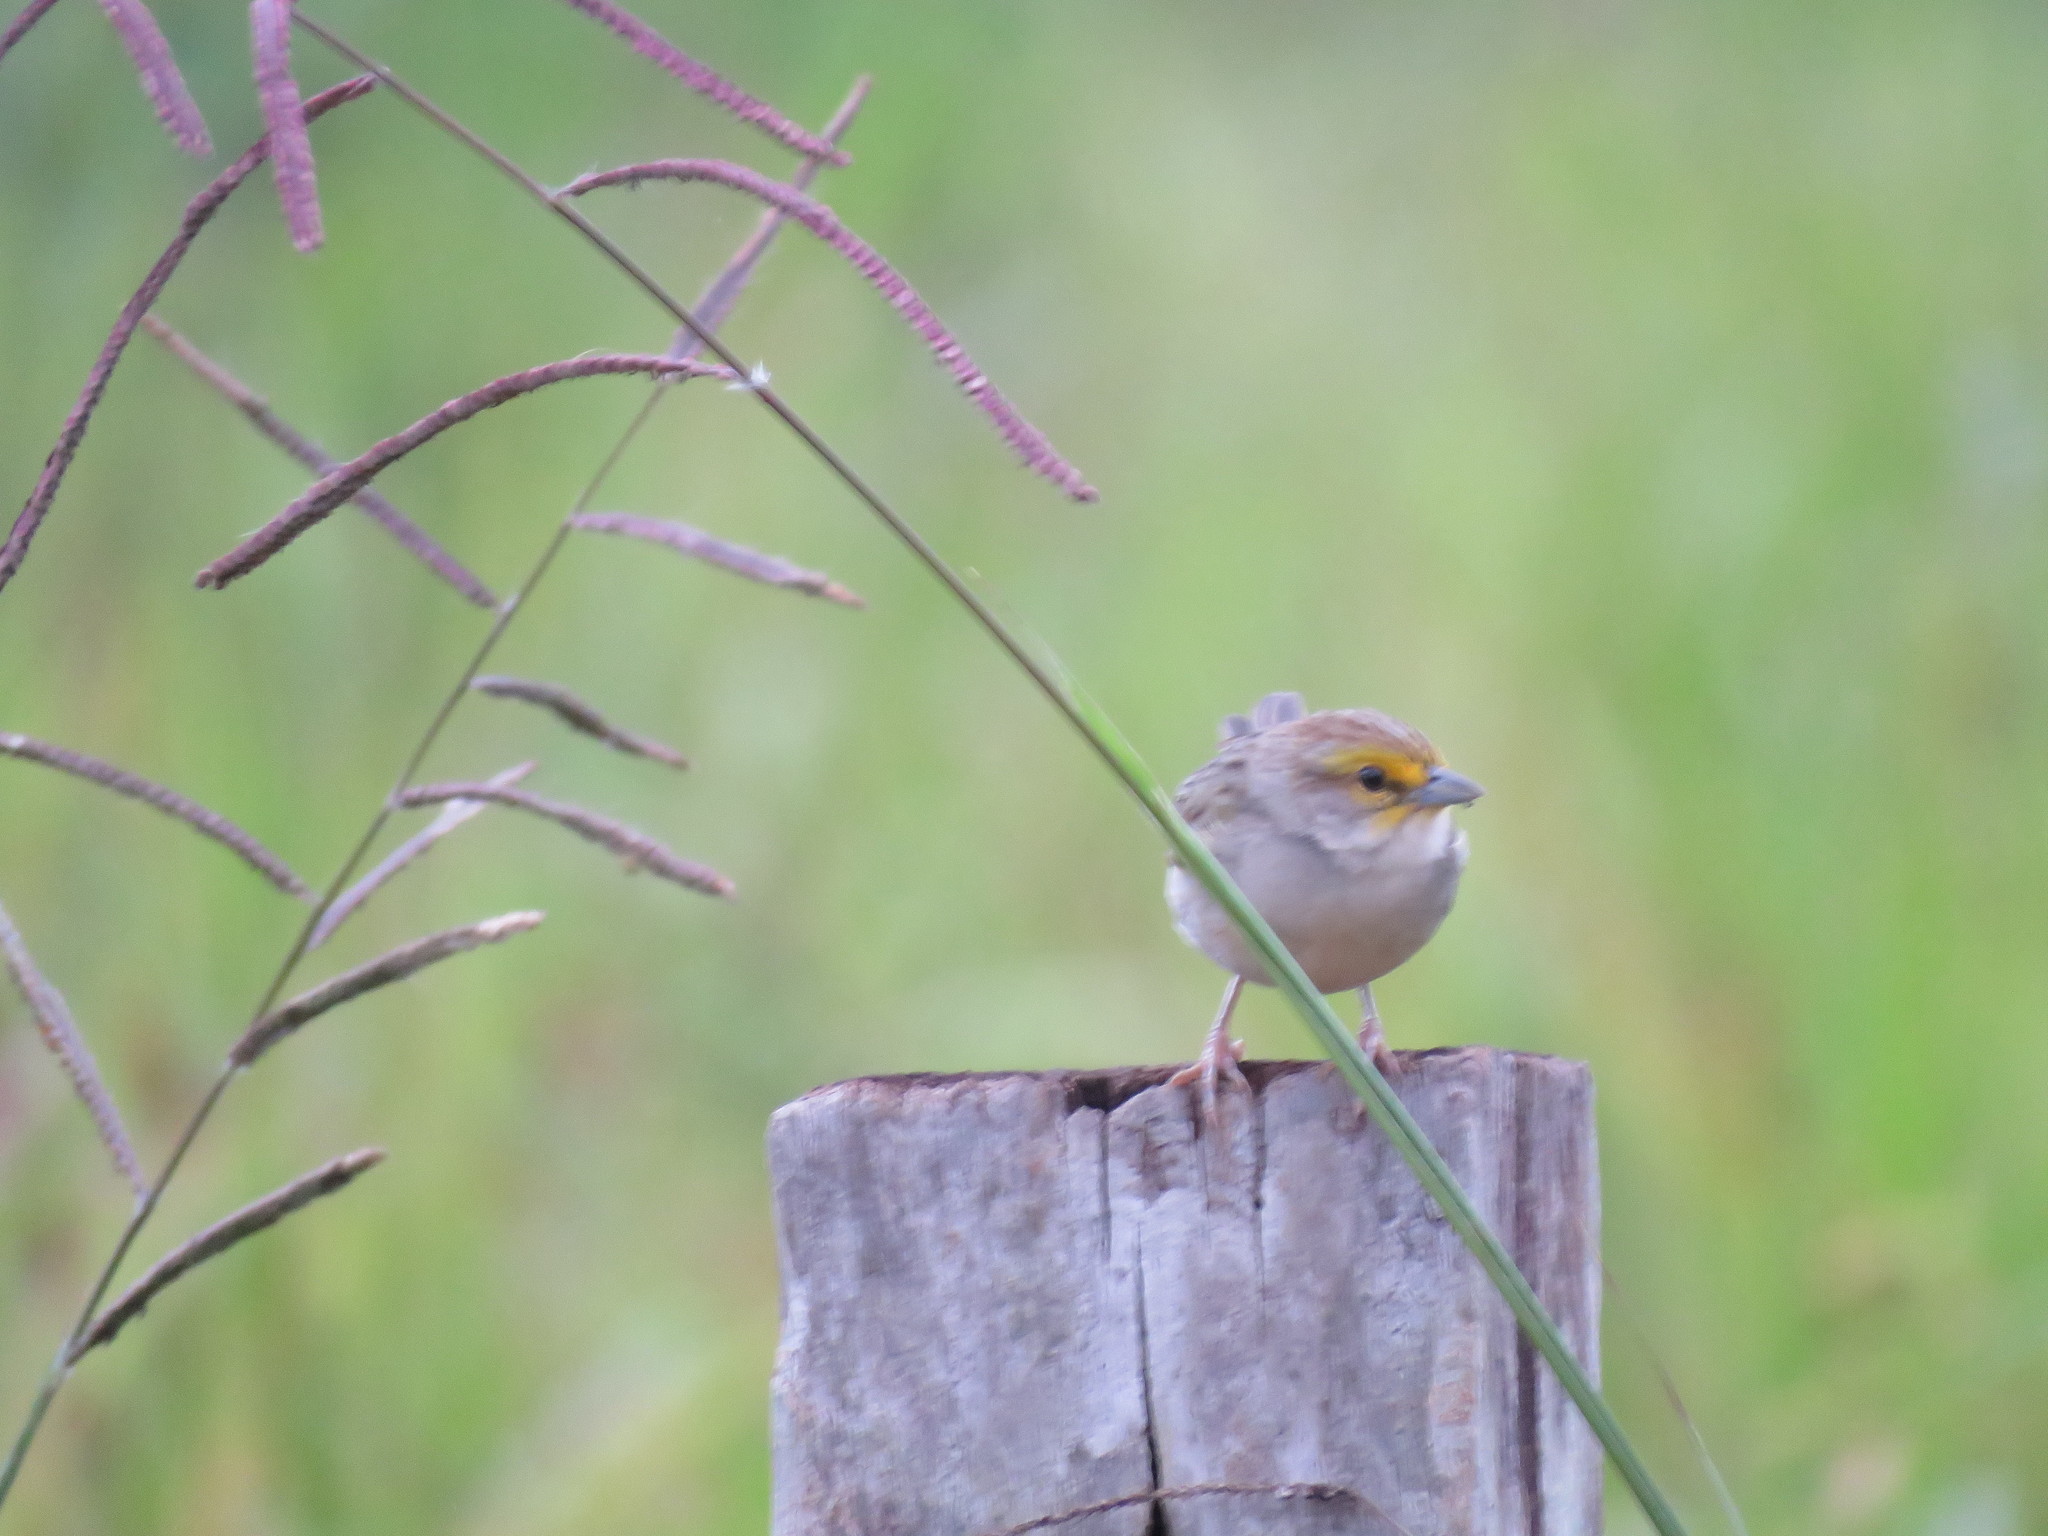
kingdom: Animalia
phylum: Chordata
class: Aves
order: Passeriformes
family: Passerellidae
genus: Ammodramus
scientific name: Ammodramus aurifrons
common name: Yellow-browed sparrow
